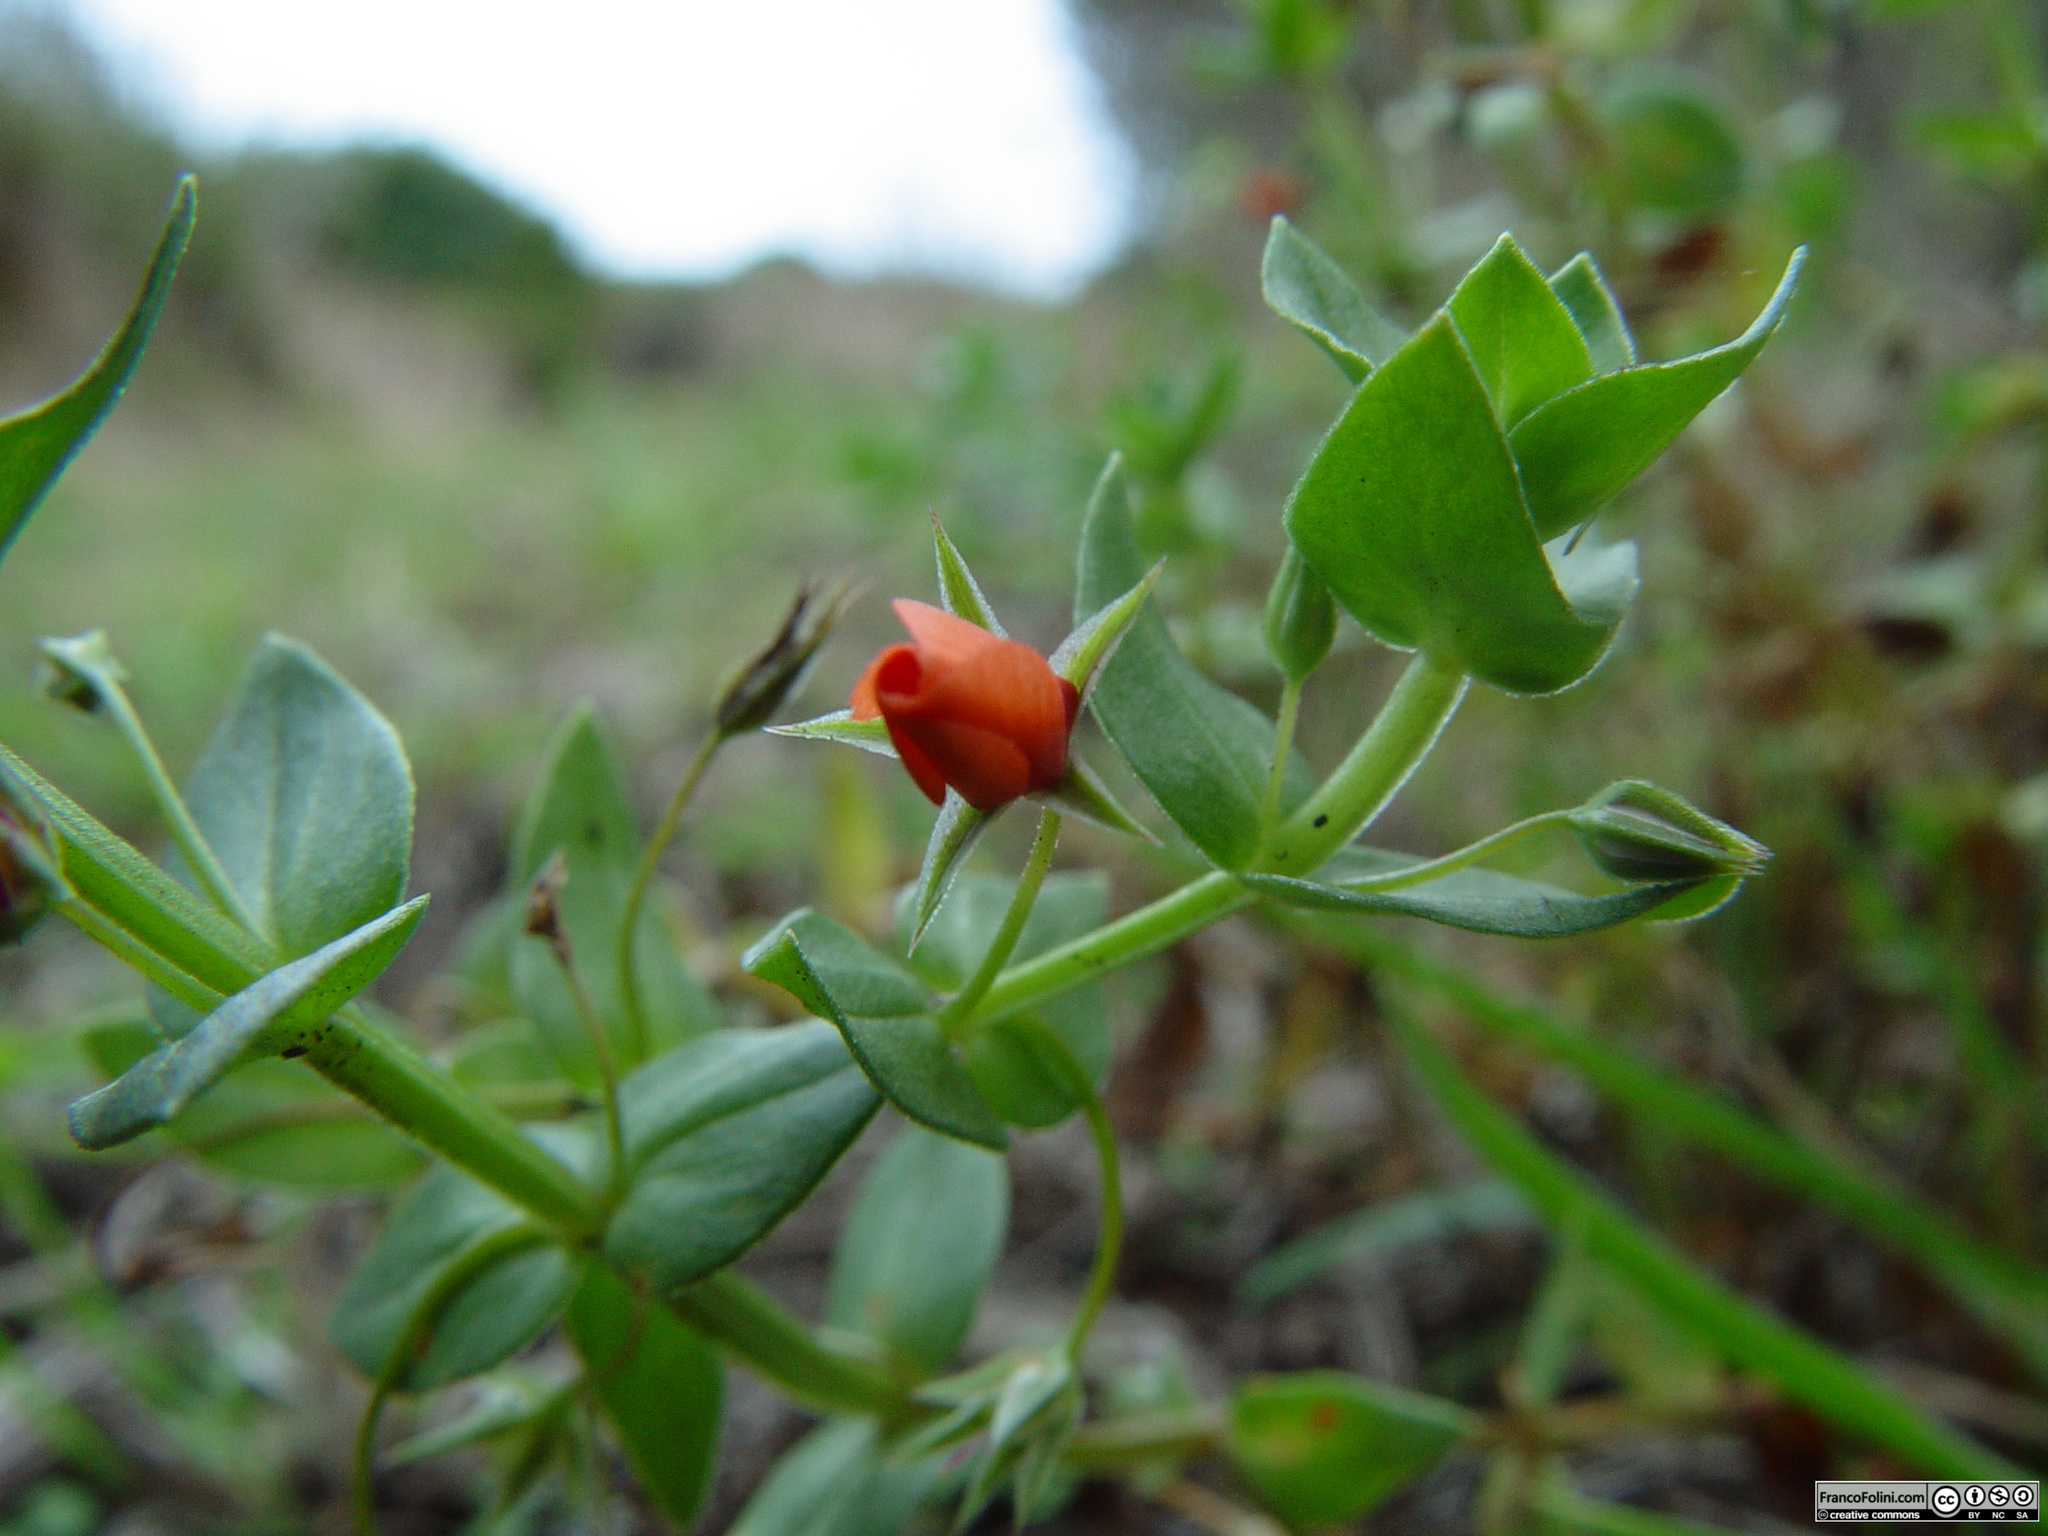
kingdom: Plantae
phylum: Tracheophyta
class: Magnoliopsida
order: Ericales
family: Primulaceae
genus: Lysimachia
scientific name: Lysimachia arvensis
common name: Scarlet pimpernel
